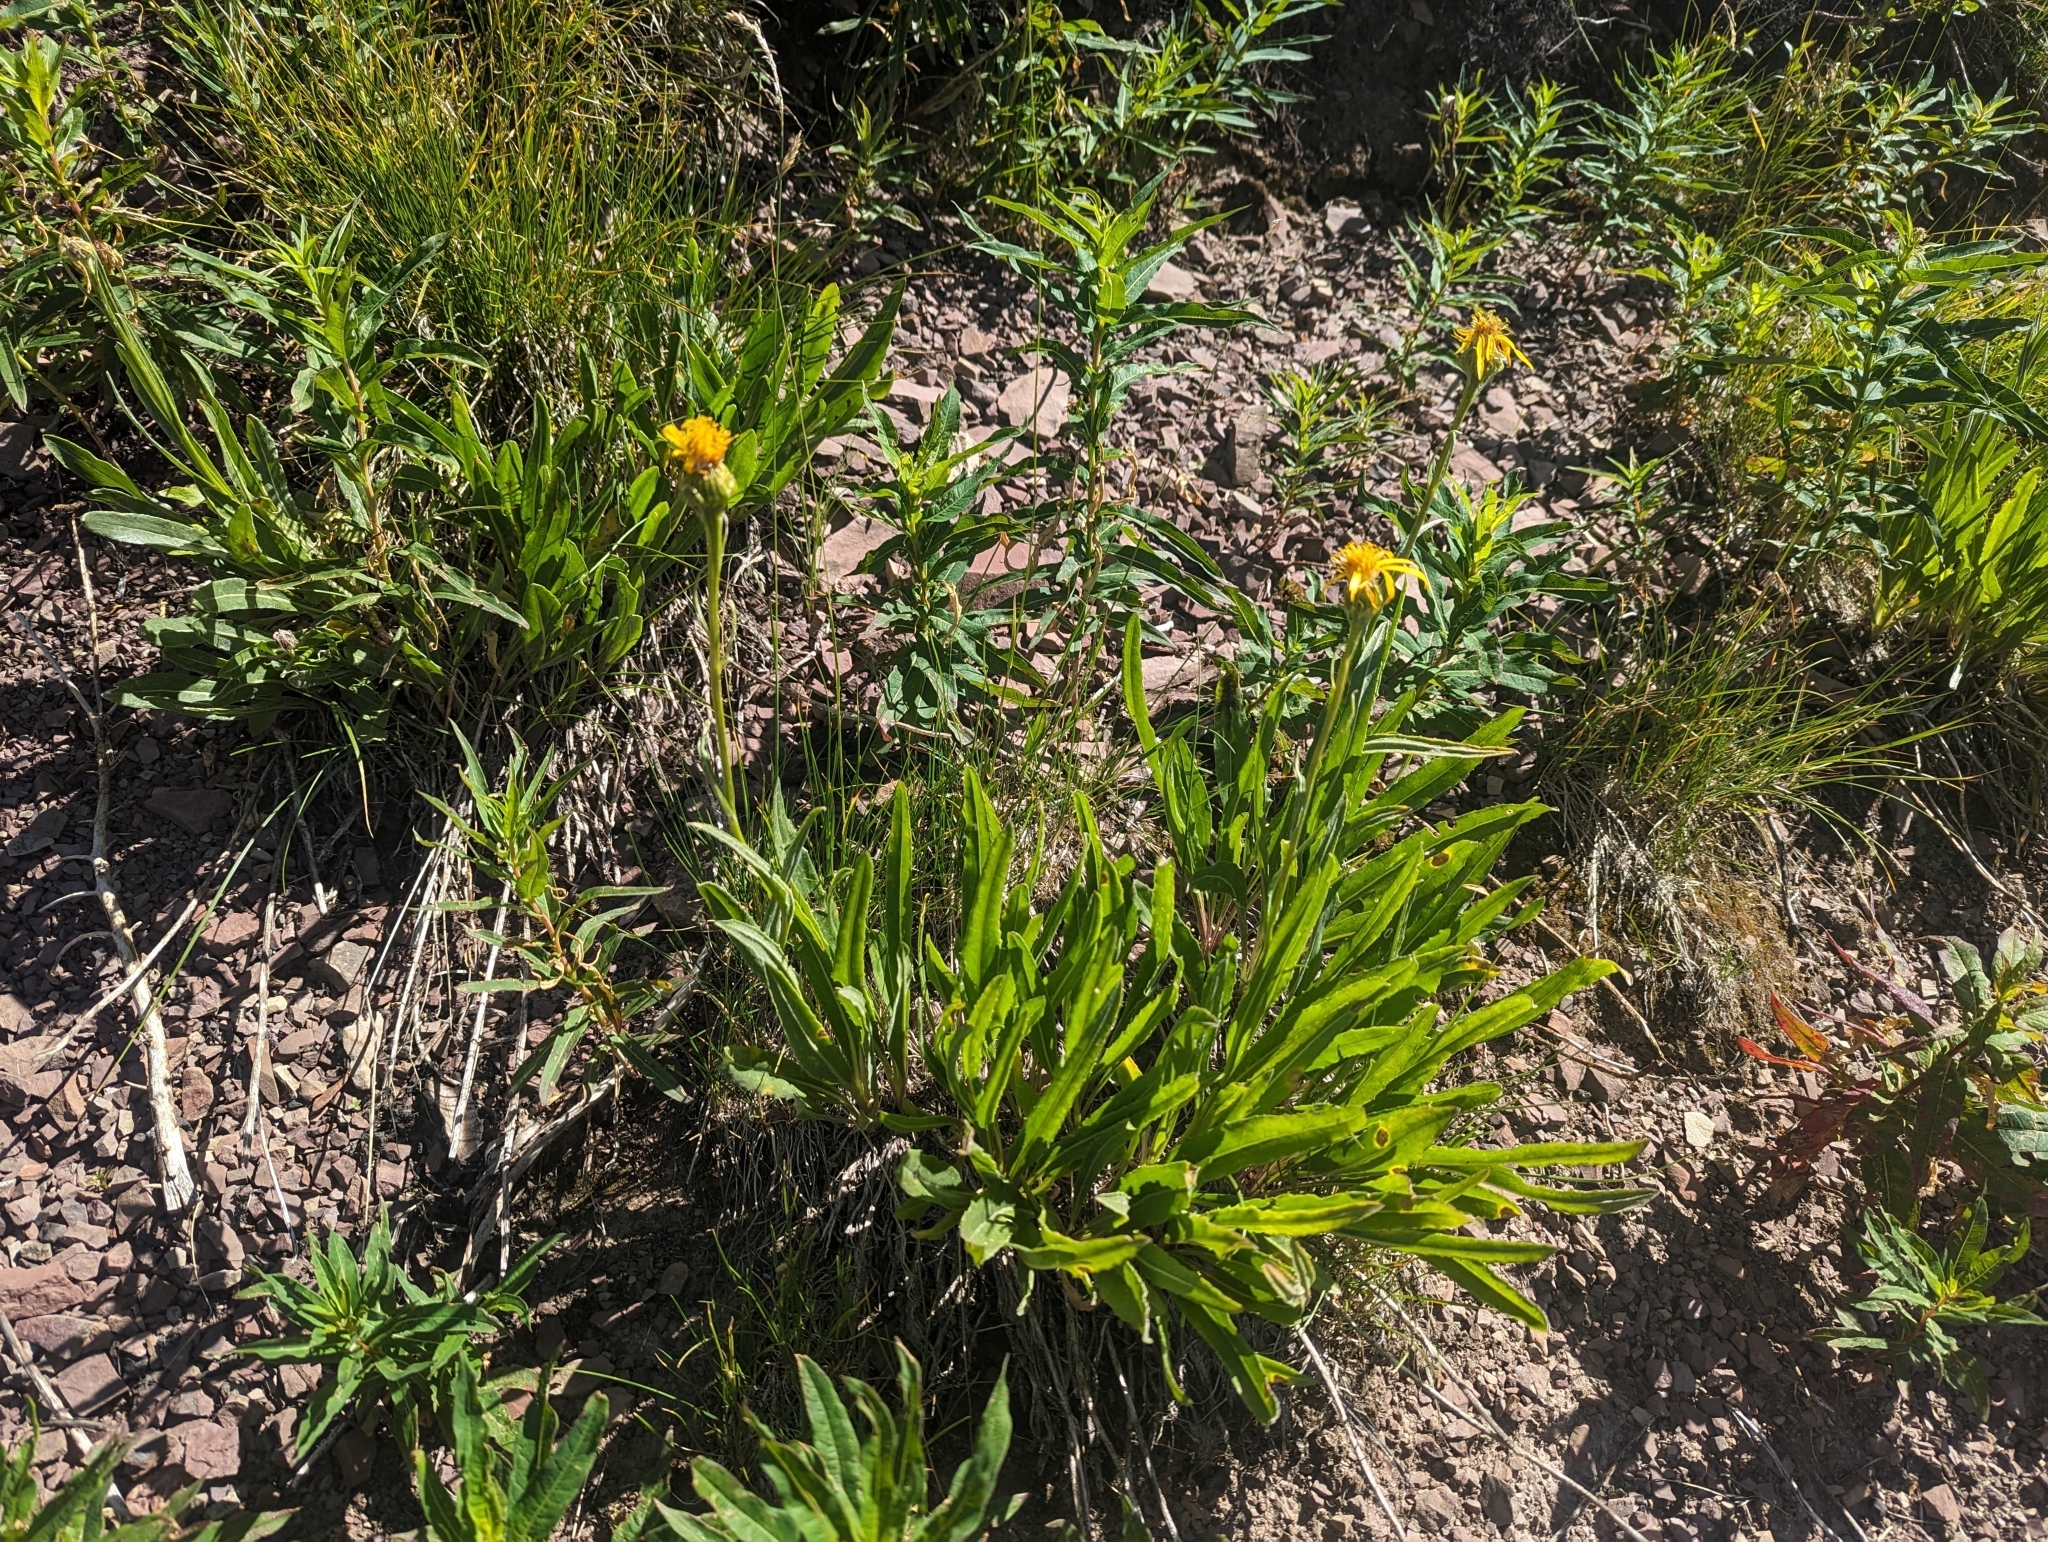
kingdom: Plantae
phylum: Tracheophyta
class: Magnoliopsida
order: Asterales
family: Asteraceae
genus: Senecio
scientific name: Senecio megacephalus
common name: Large-flowered ragwort
